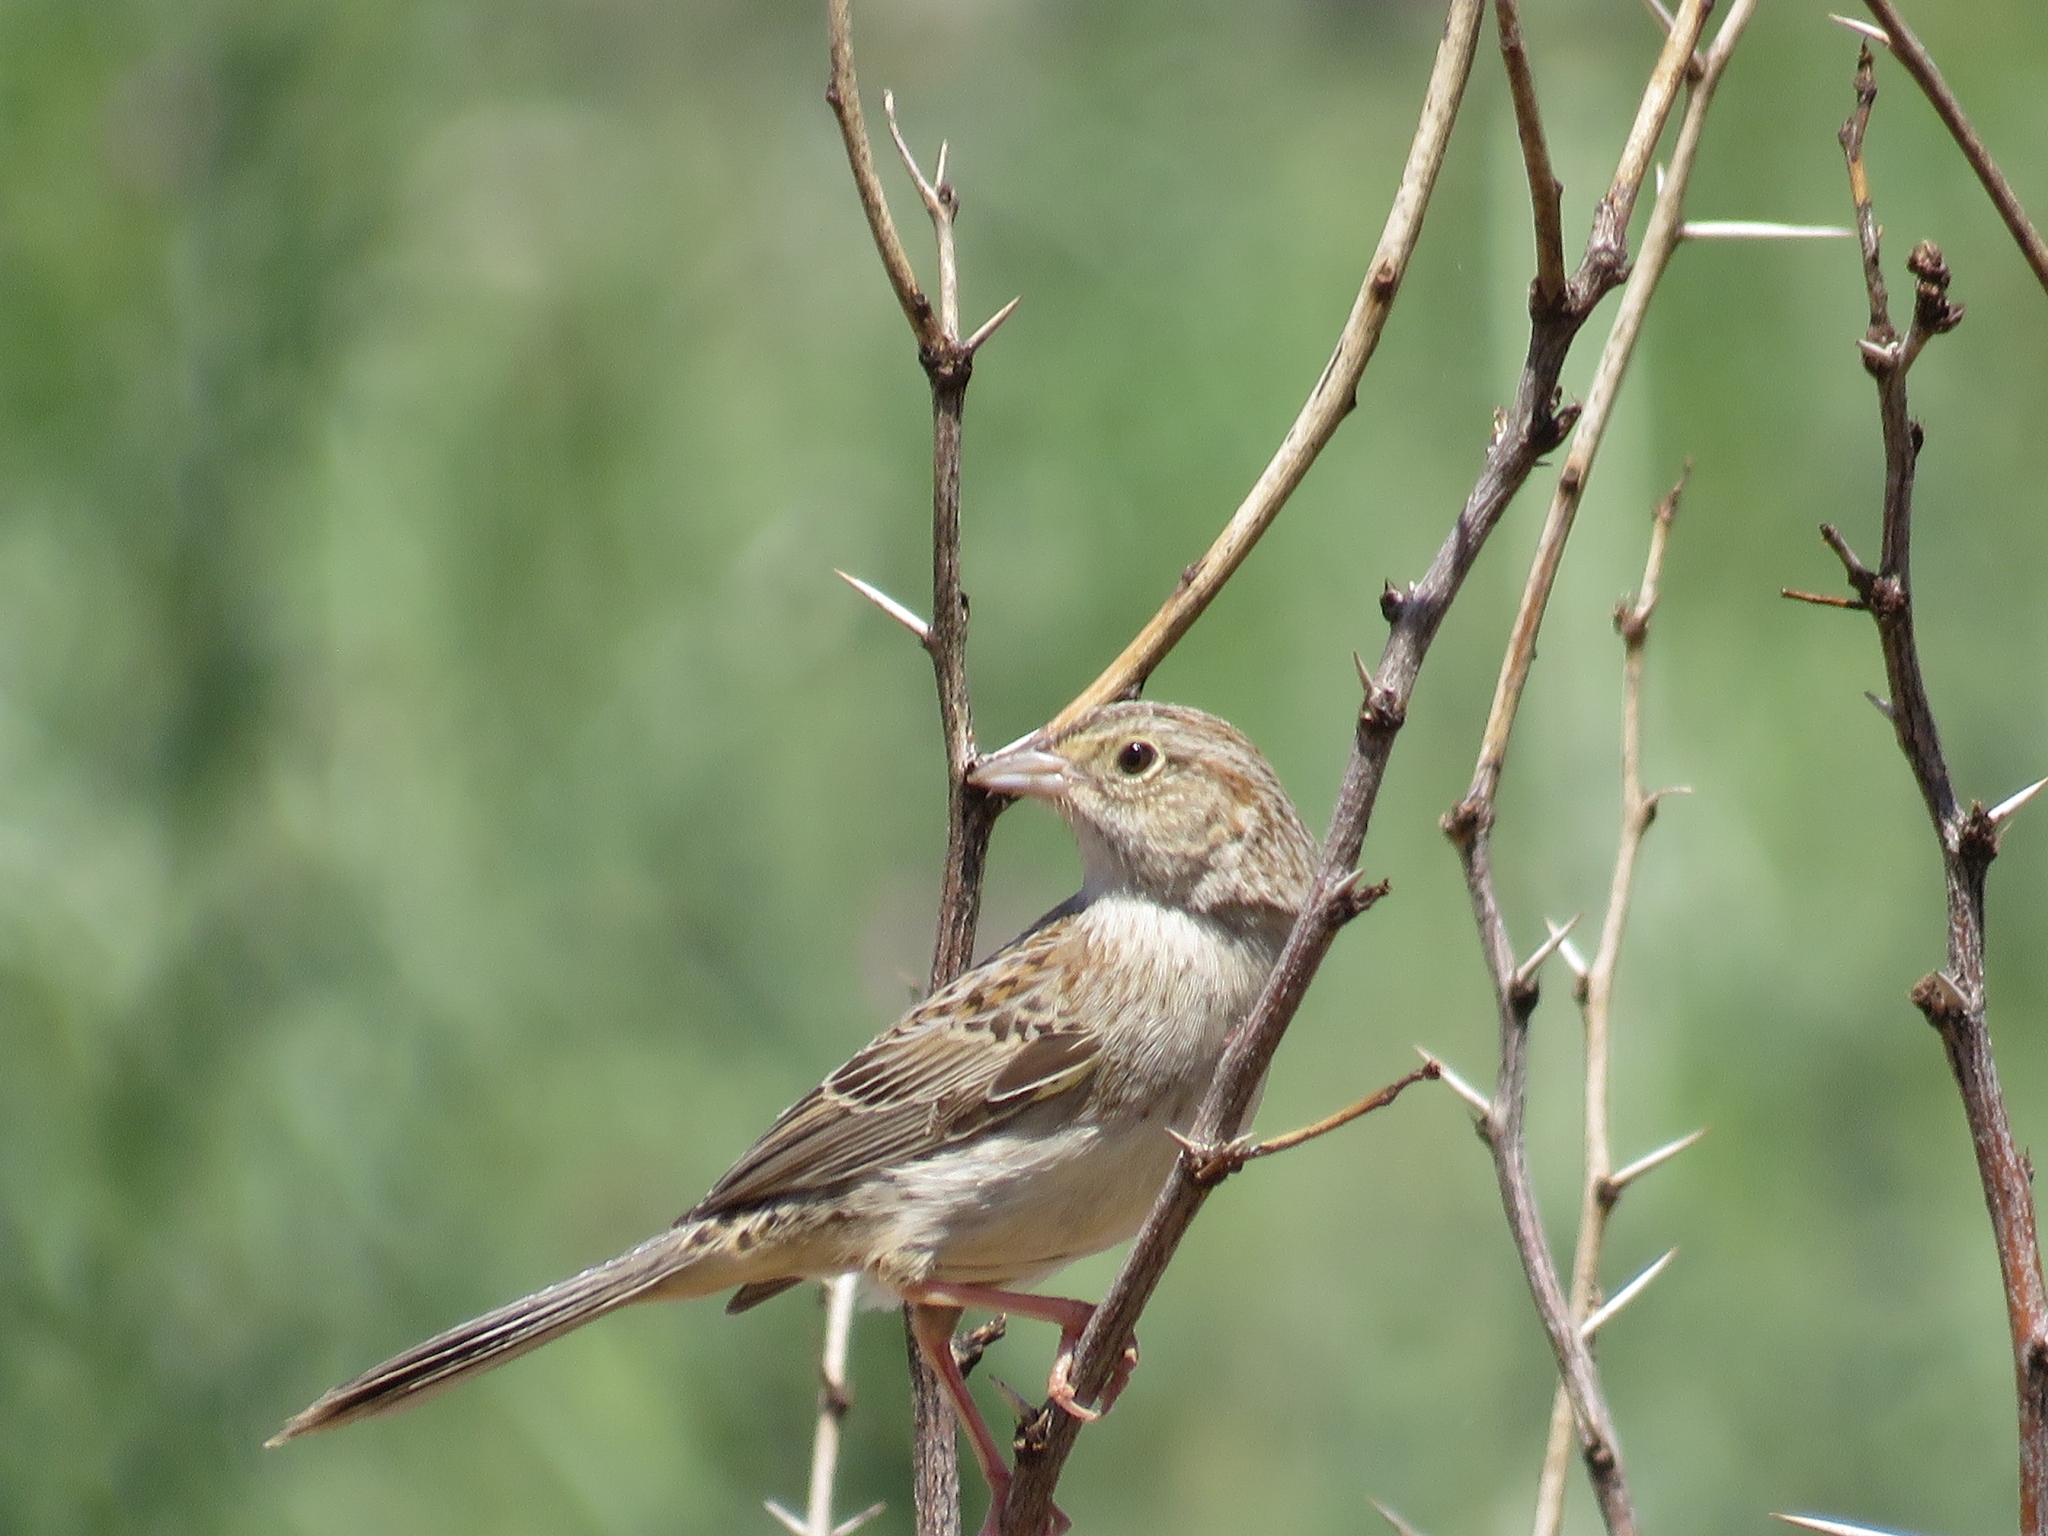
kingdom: Animalia
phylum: Chordata
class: Aves
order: Passeriformes
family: Passerellidae
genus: Peucaea
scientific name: Peucaea cassinii
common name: Cassin's sparrow
